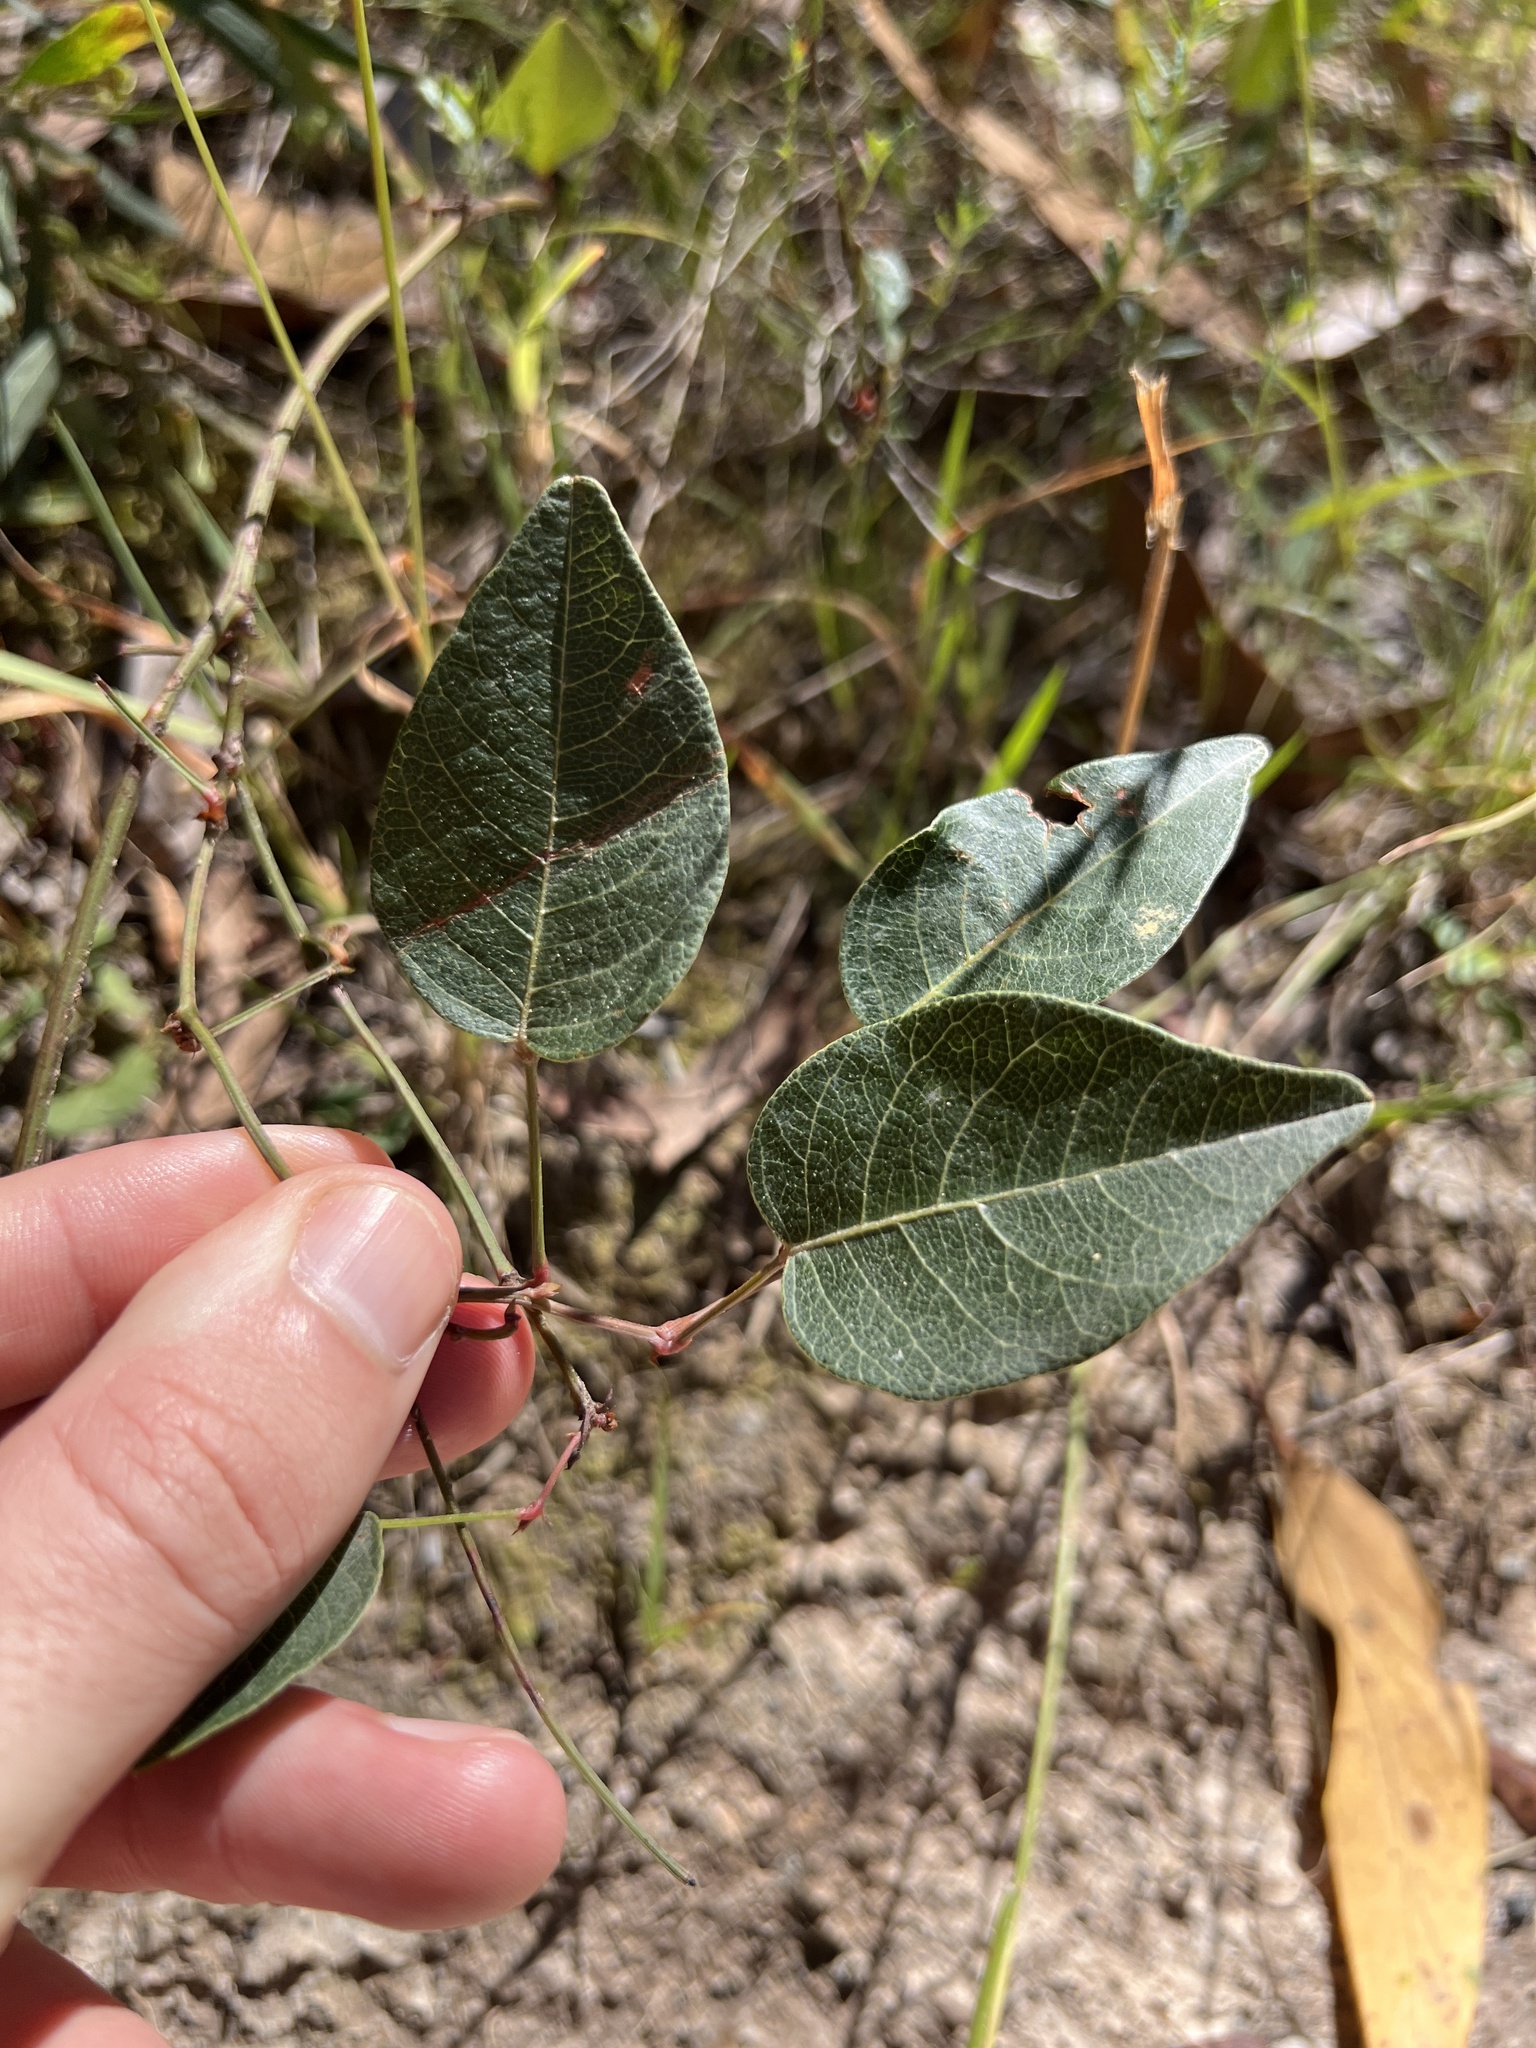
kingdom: Plantae
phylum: Tracheophyta
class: Magnoliopsida
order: Fabales
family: Fabaceae
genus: Hardenbergia
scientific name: Hardenbergia violacea
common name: Coral-pea
